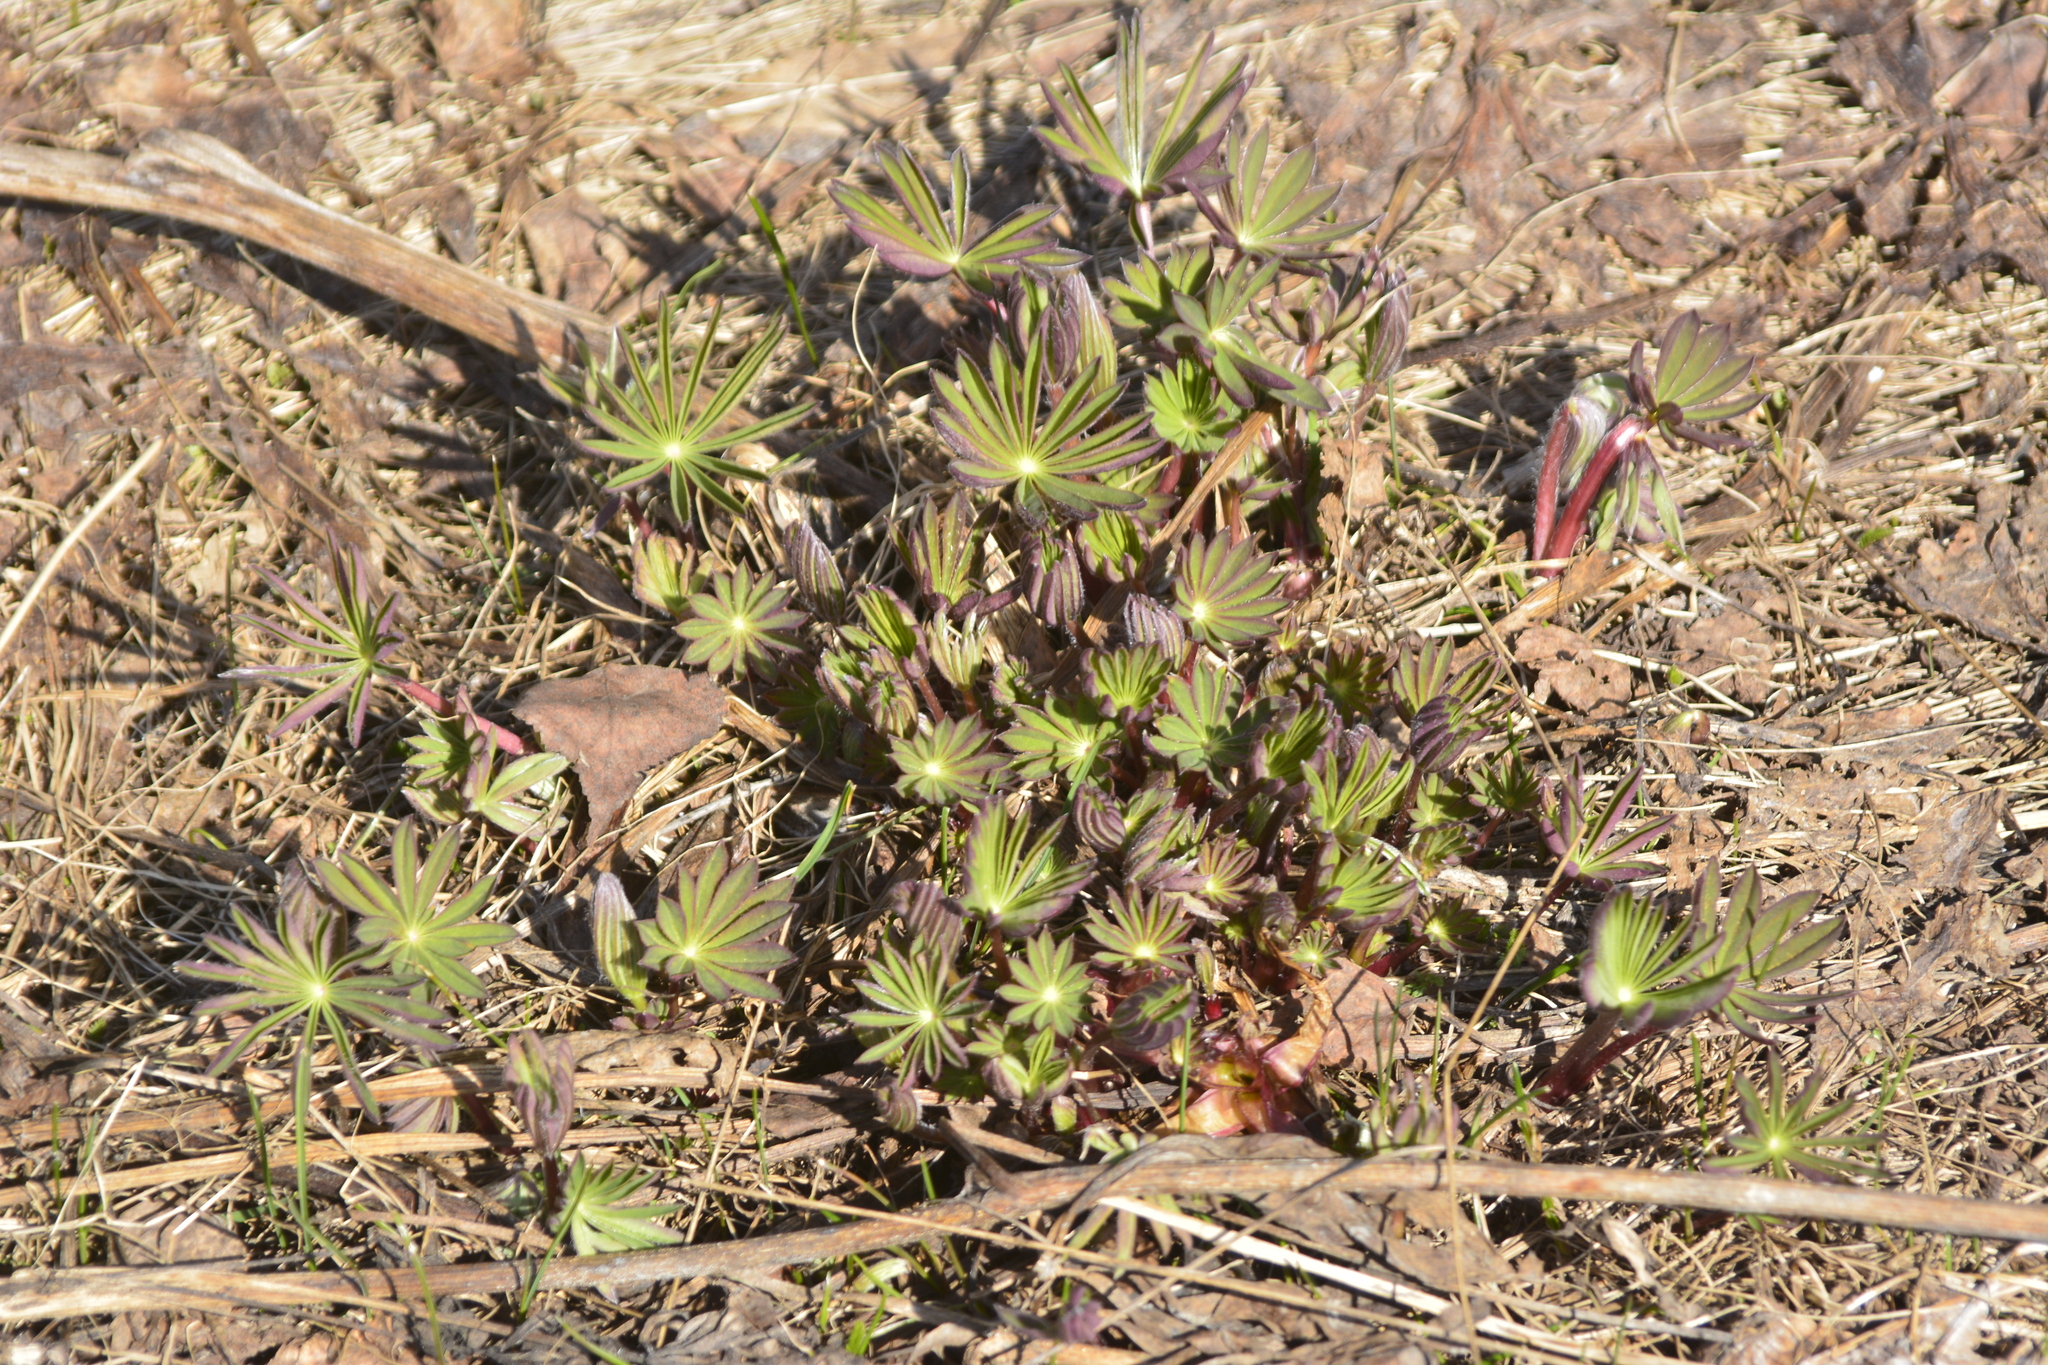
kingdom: Plantae
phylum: Tracheophyta
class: Magnoliopsida
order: Fabales
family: Fabaceae
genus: Lupinus
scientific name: Lupinus polyphyllus
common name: Garden lupin
